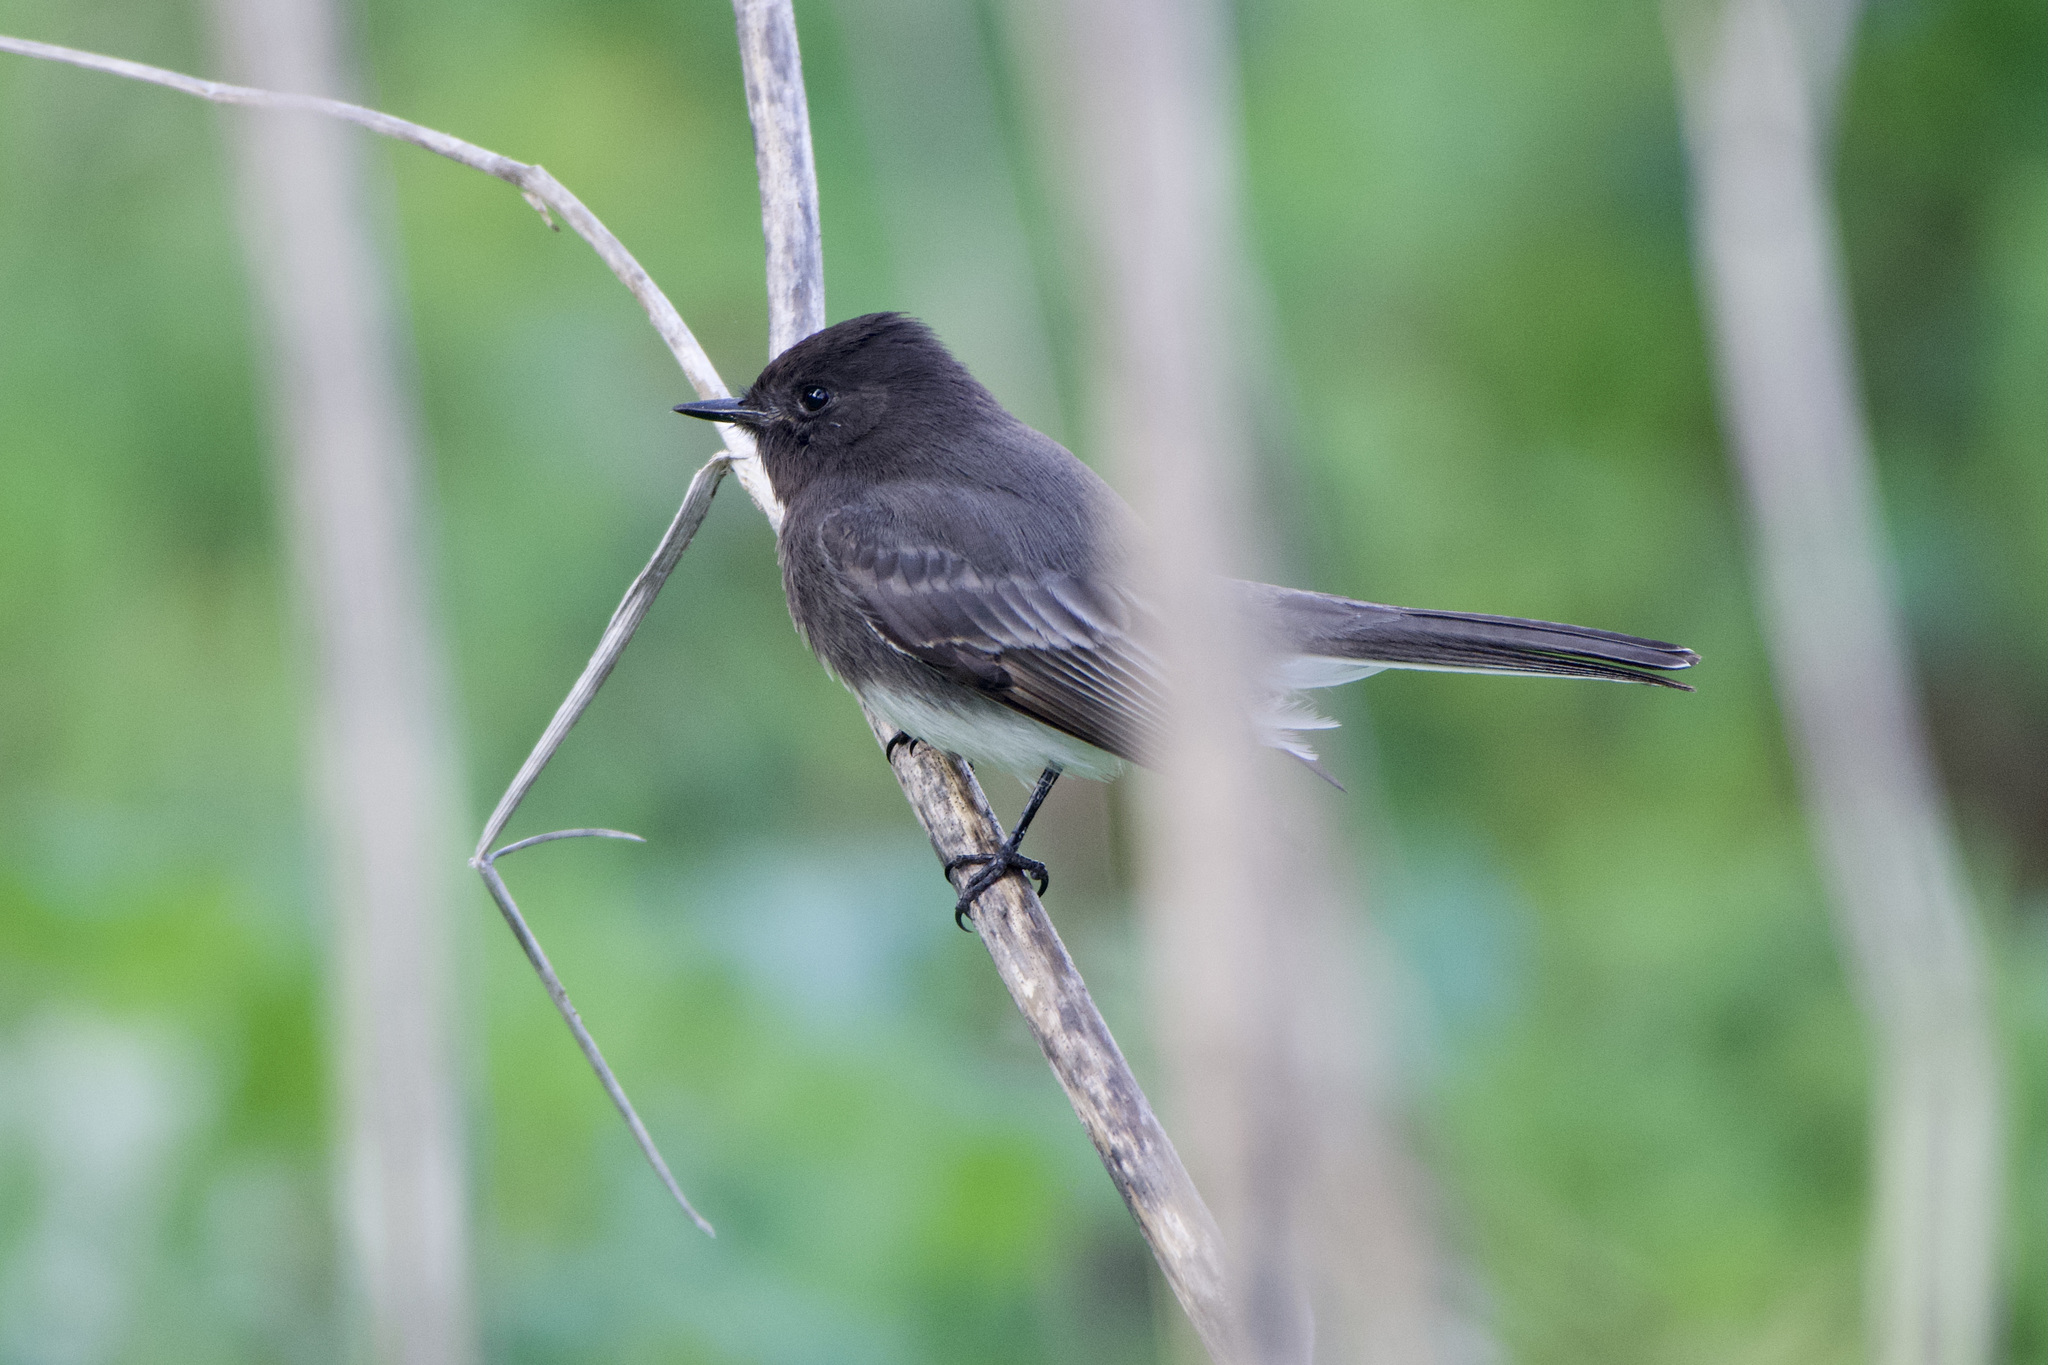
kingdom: Animalia
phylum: Chordata
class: Aves
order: Passeriformes
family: Tyrannidae
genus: Sayornis
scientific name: Sayornis nigricans
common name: Black phoebe
